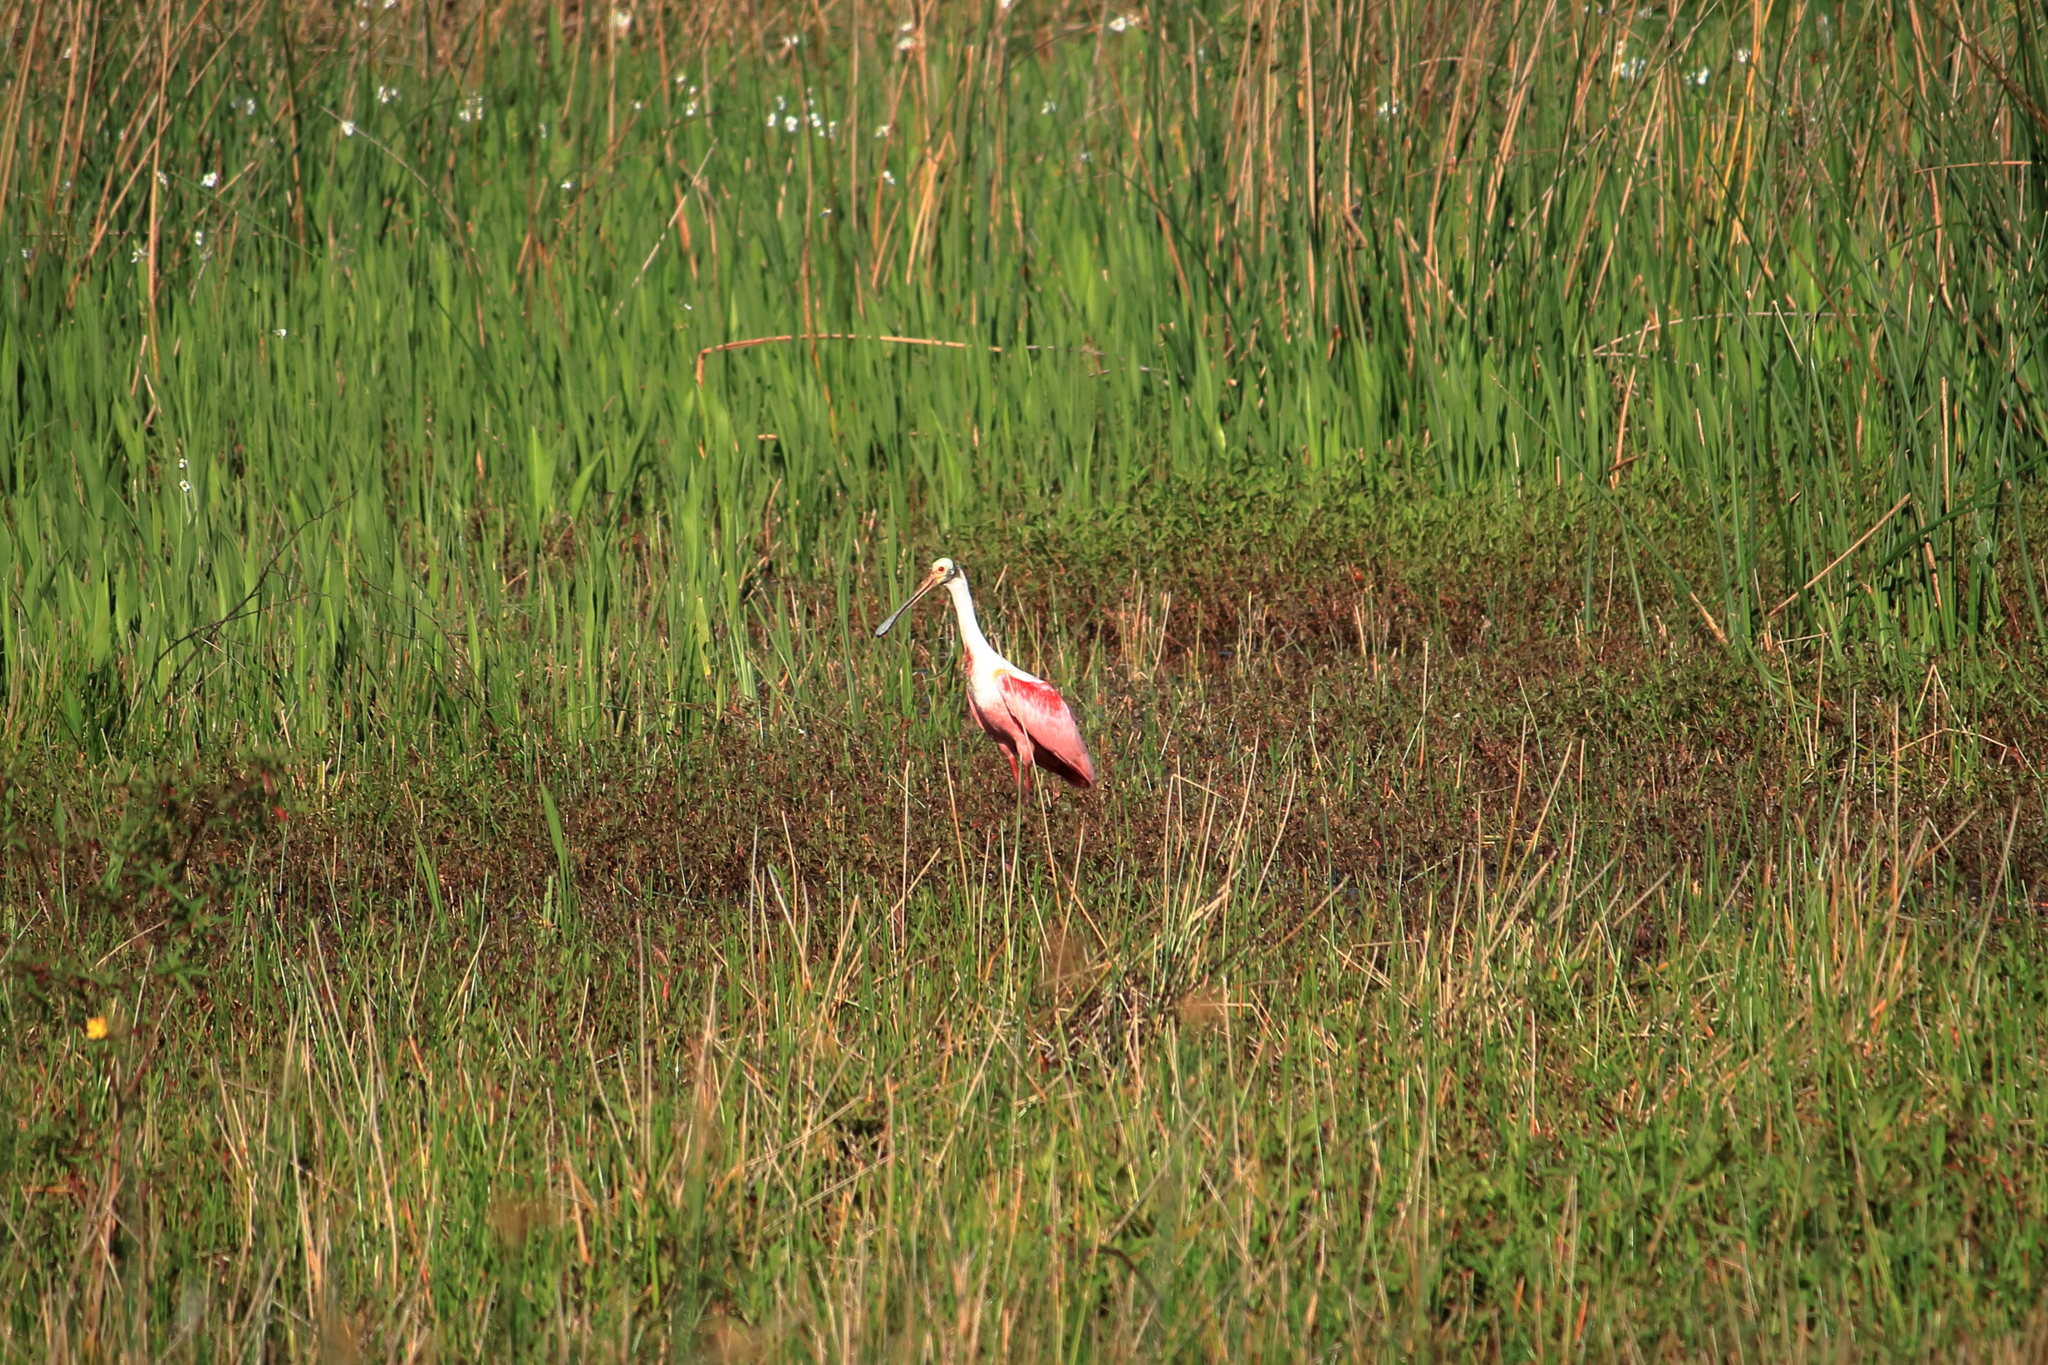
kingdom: Animalia
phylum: Chordata
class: Aves
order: Pelecaniformes
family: Threskiornithidae
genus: Platalea
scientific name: Platalea ajaja
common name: Roseate spoonbill
